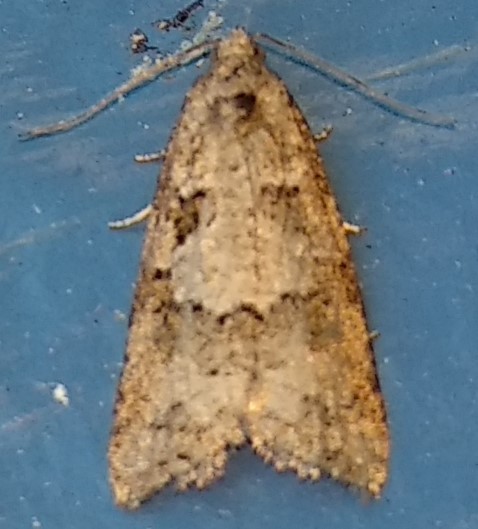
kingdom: Animalia
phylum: Arthropoda
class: Insecta
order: Lepidoptera
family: Tortricidae
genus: Cnephasia
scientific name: Cnephasia stephensiana
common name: Grey tortrix
